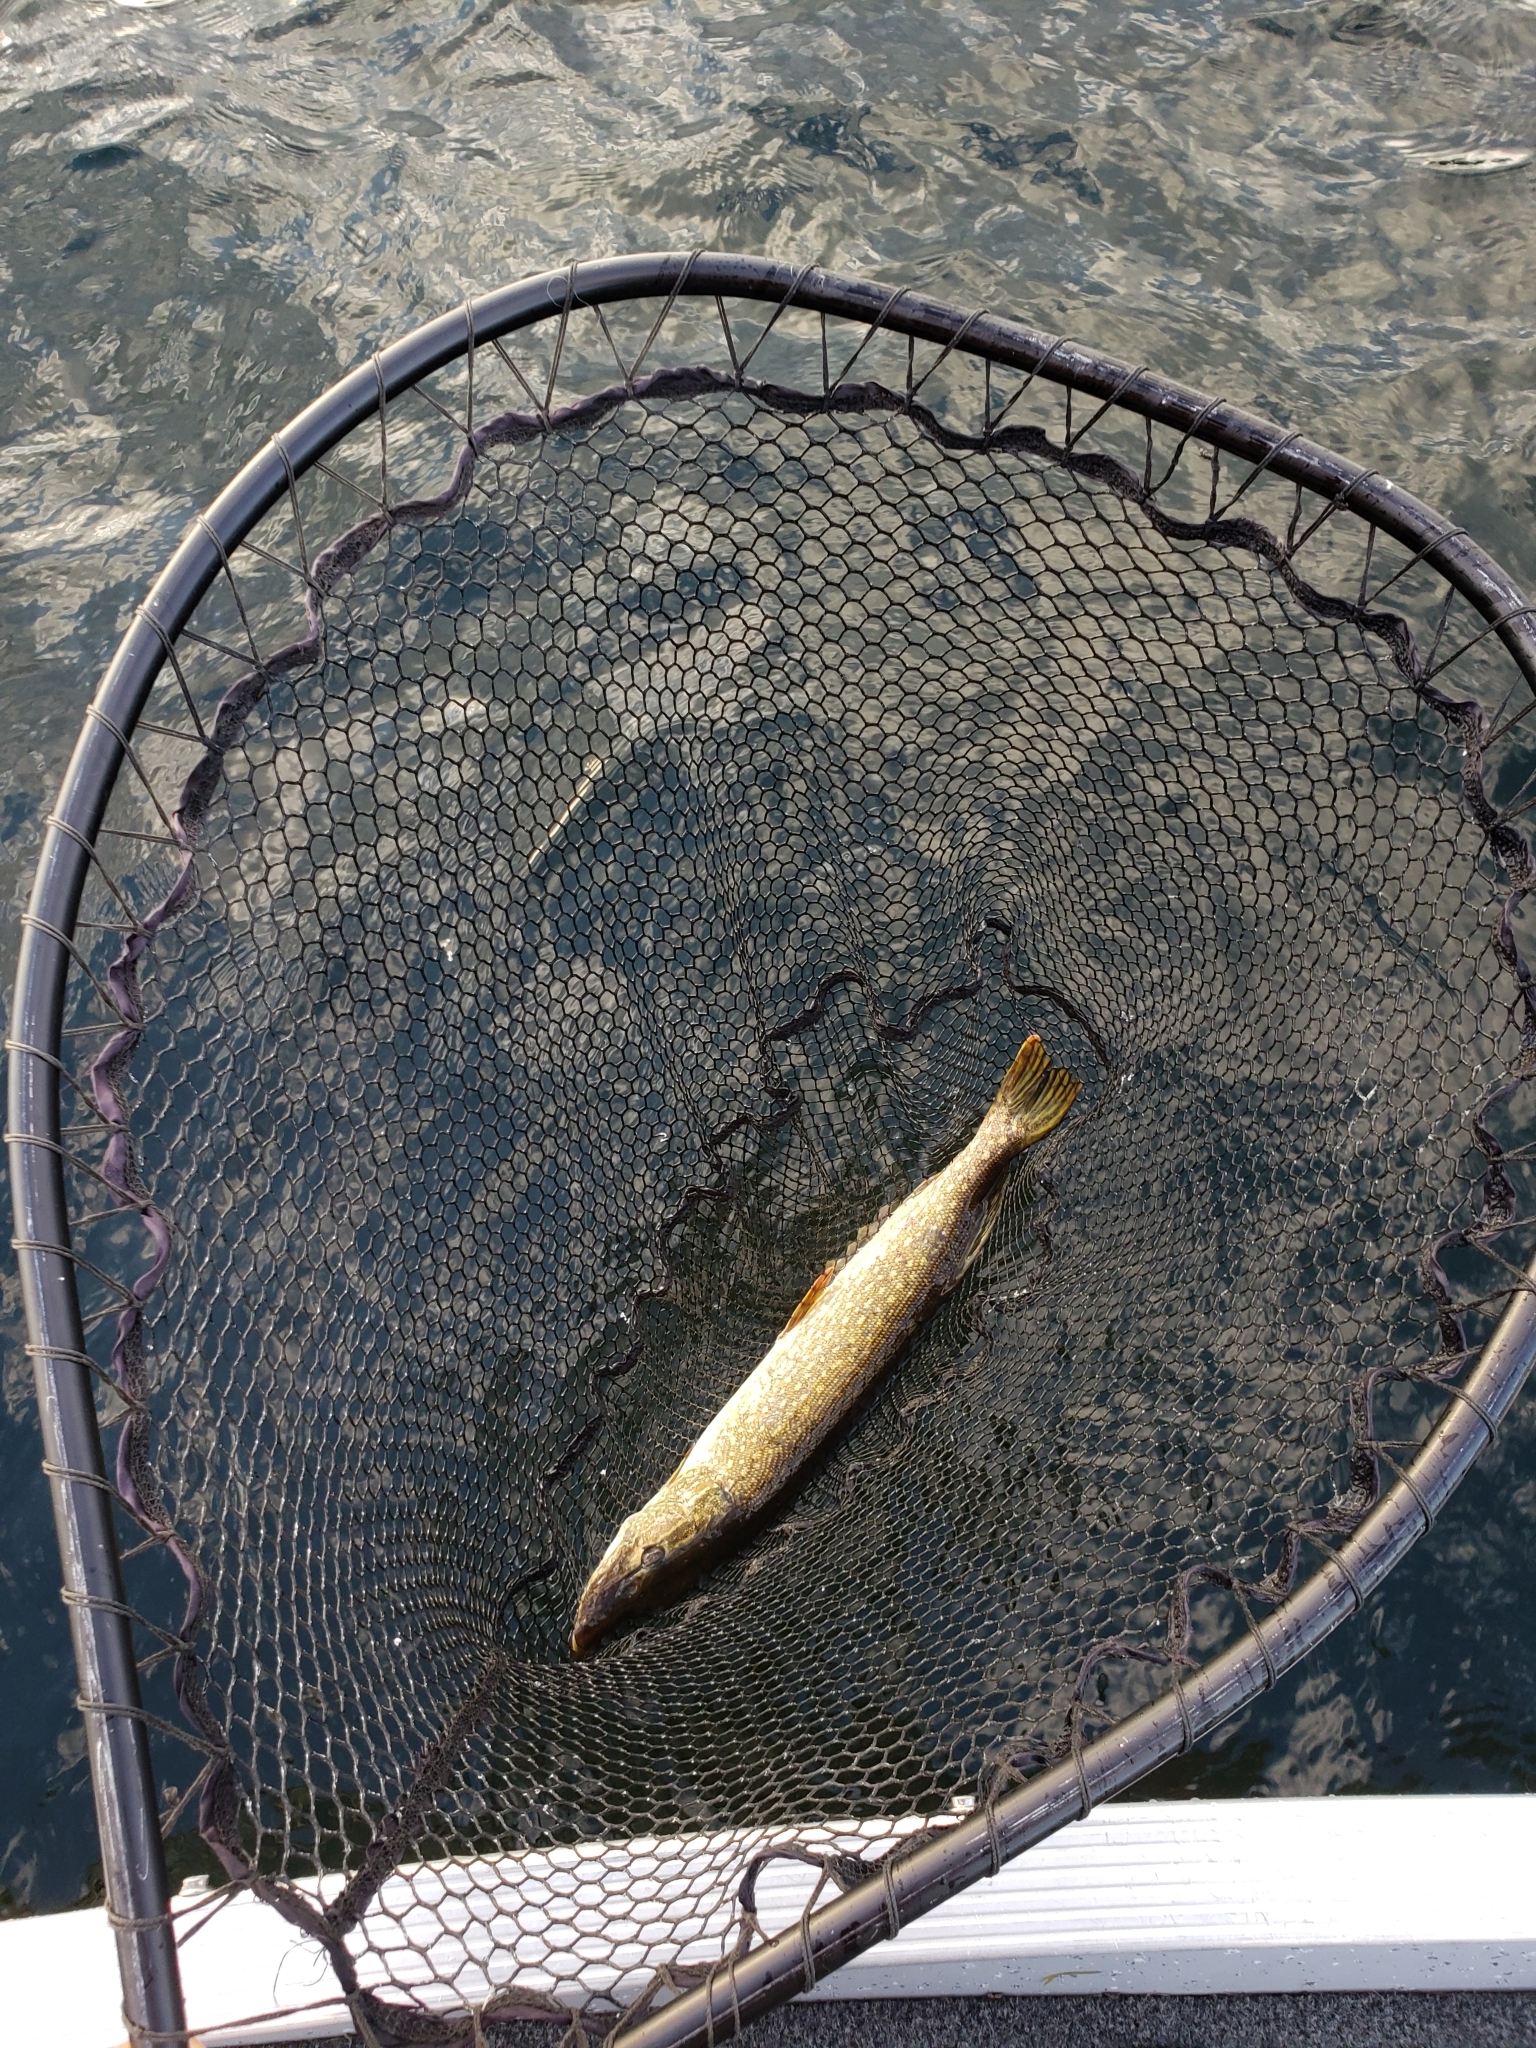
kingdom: Animalia
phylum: Chordata
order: Esociformes
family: Esocidae
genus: Esox
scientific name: Esox lucius
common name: Northern pike
